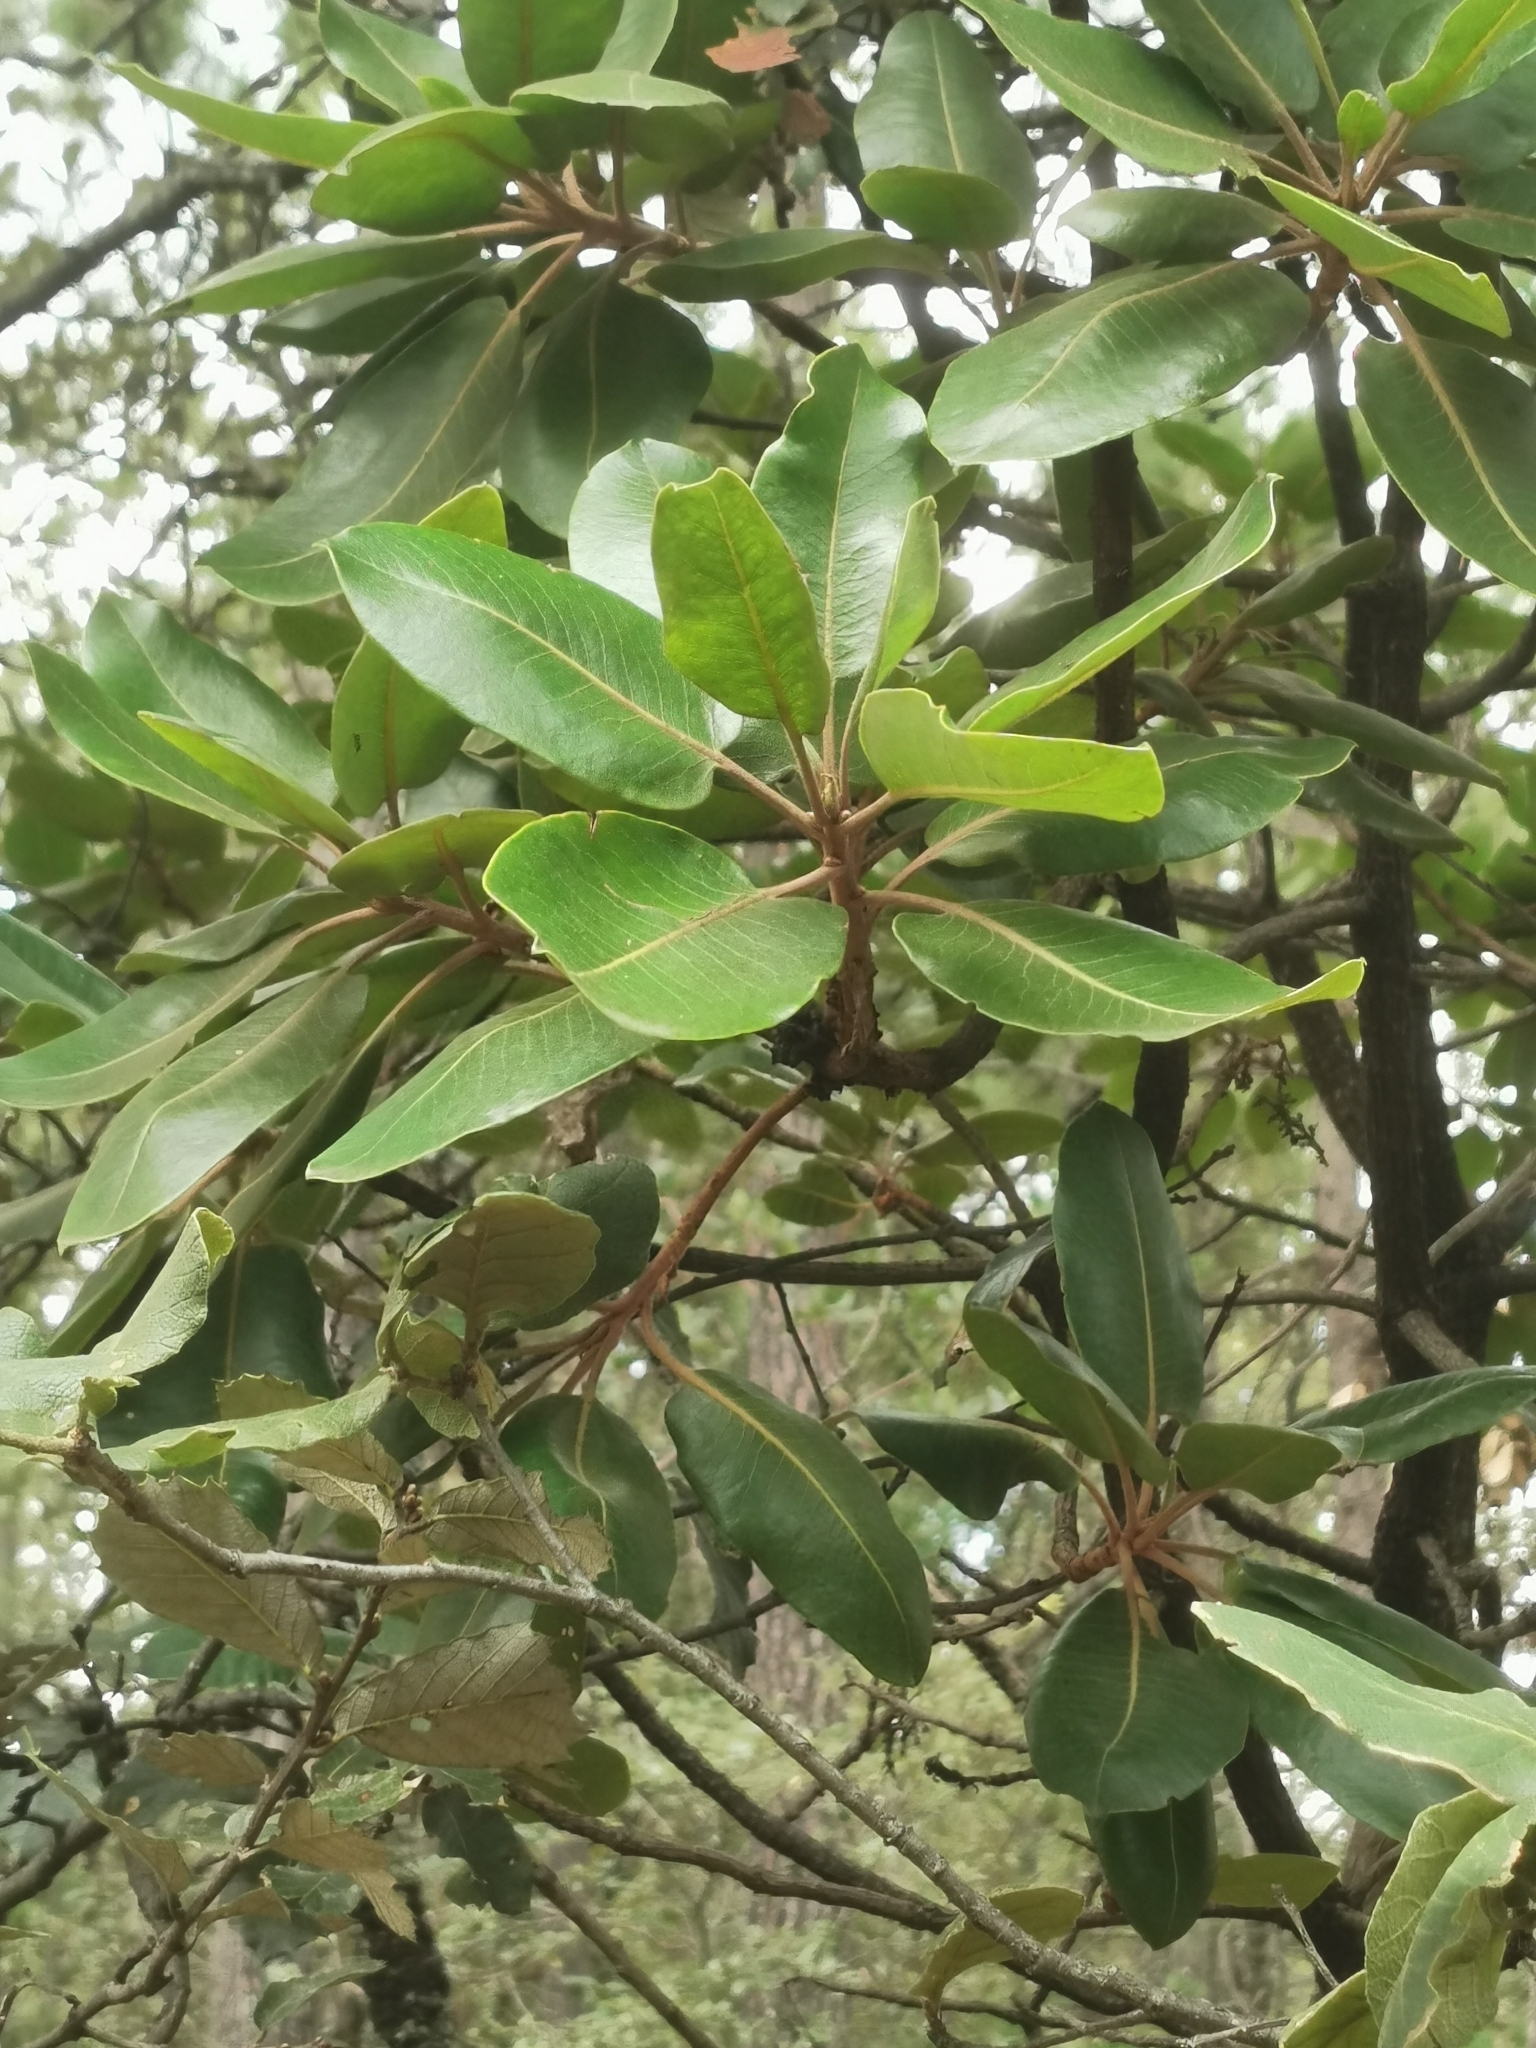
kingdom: Plantae
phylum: Tracheophyta
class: Magnoliopsida
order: Ericales
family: Ericaceae
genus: Arbutus
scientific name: Arbutus madrensis
